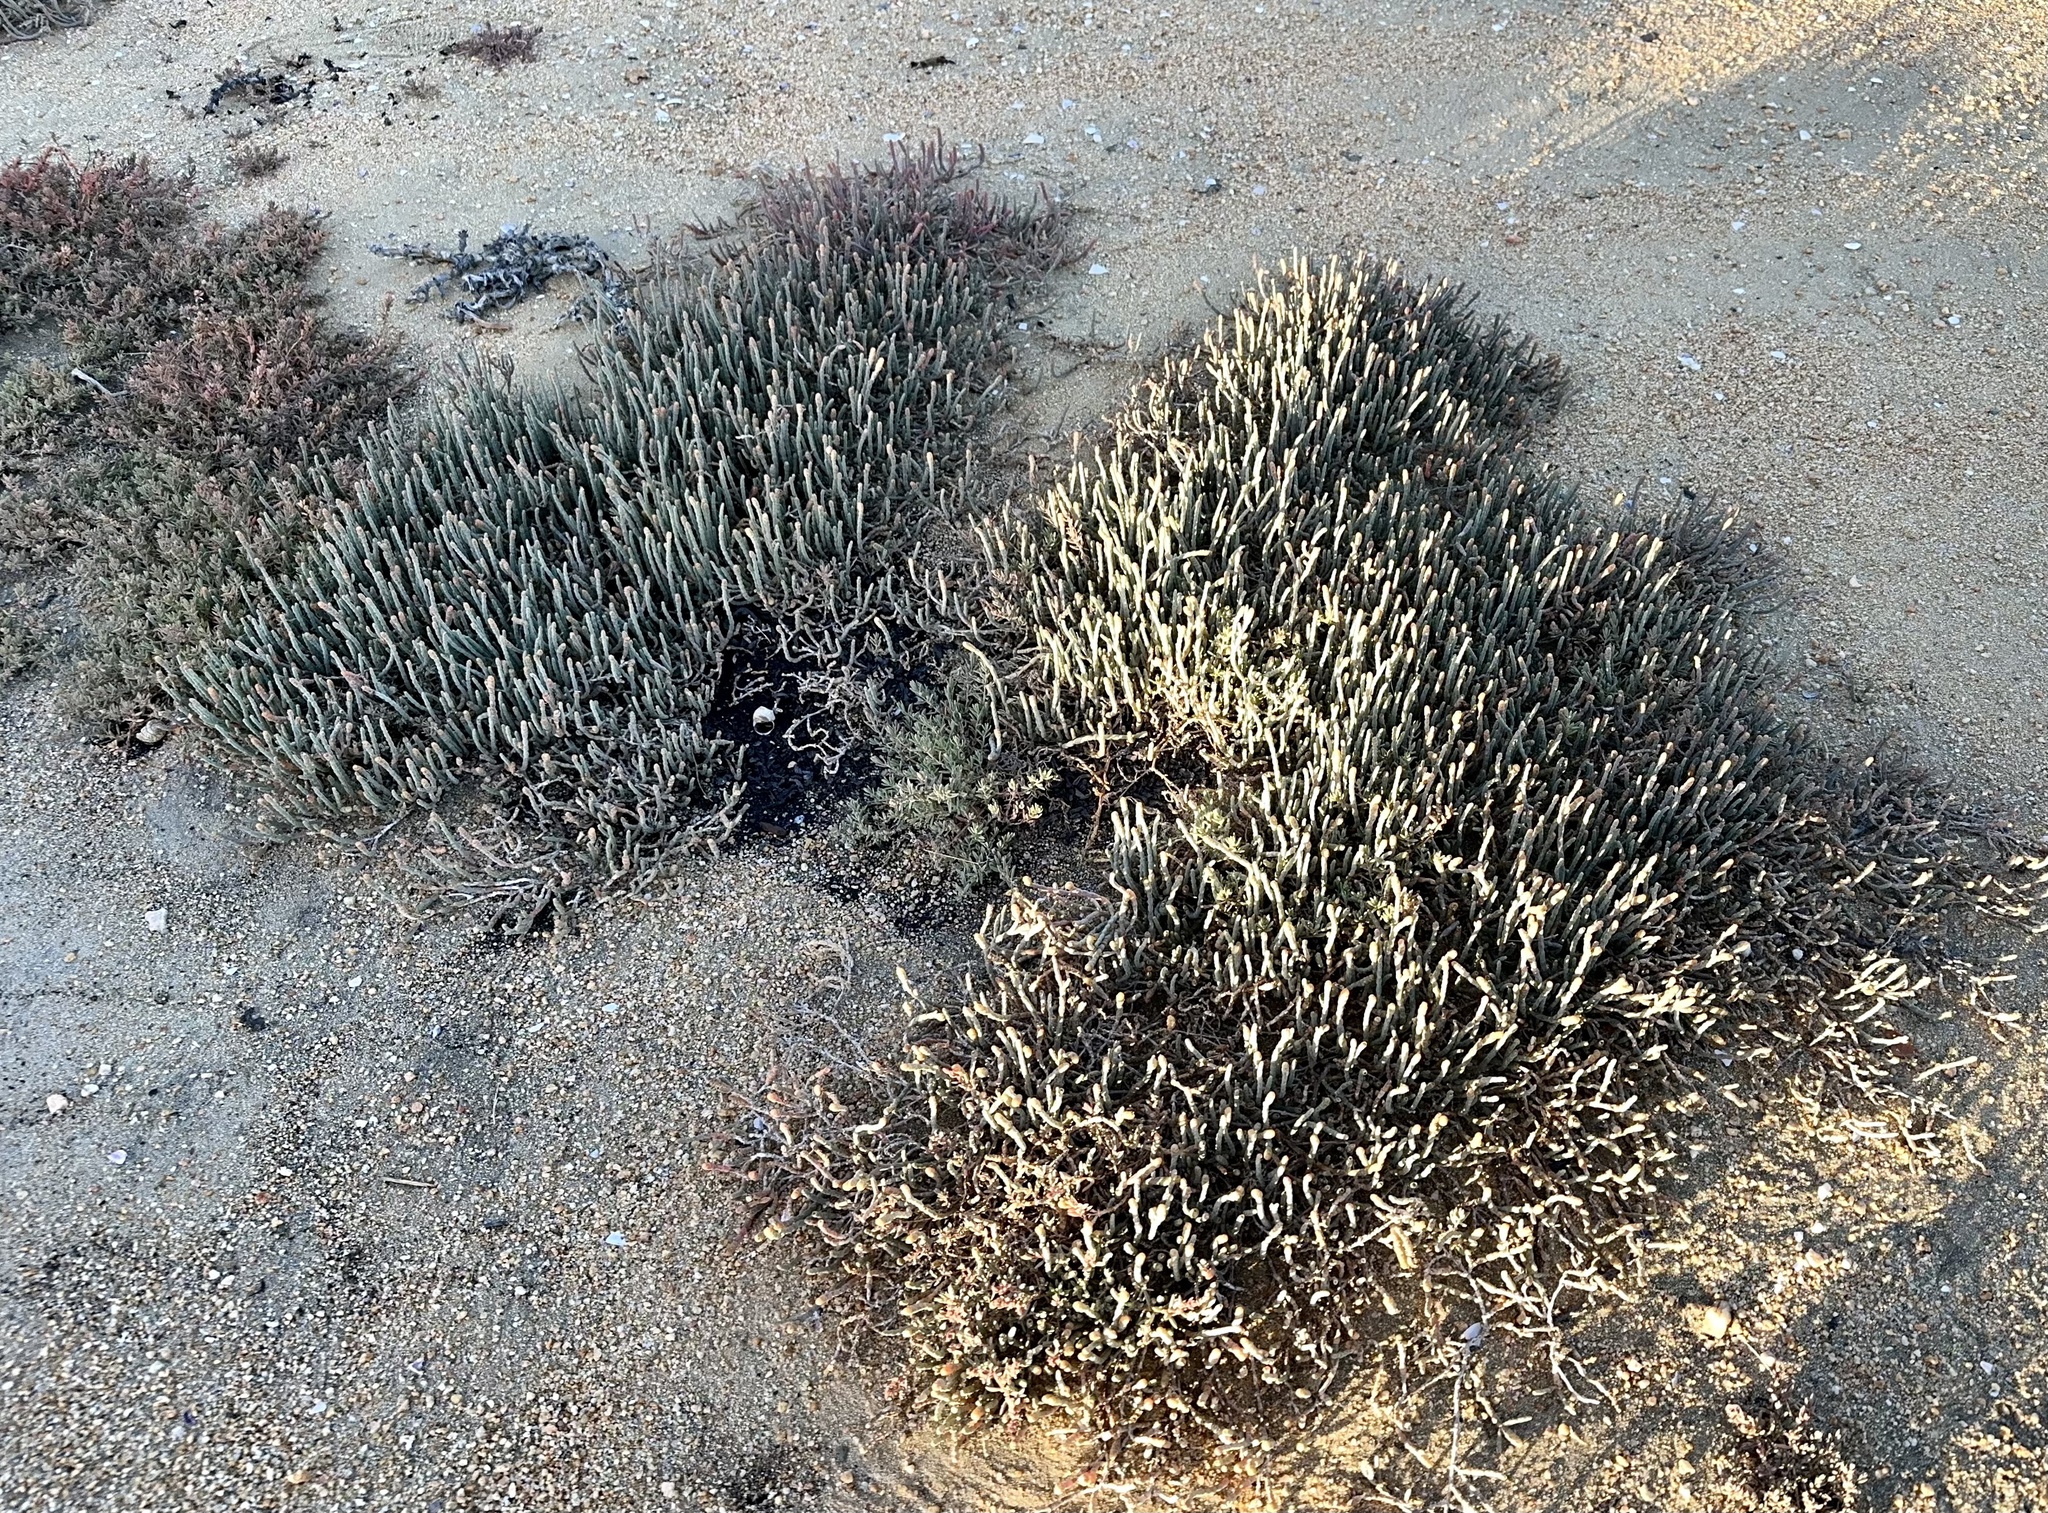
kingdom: Plantae
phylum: Tracheophyta
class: Magnoliopsida
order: Caryophyllales
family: Amaranthaceae
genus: Salicornia
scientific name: Salicornia quinqueflora
